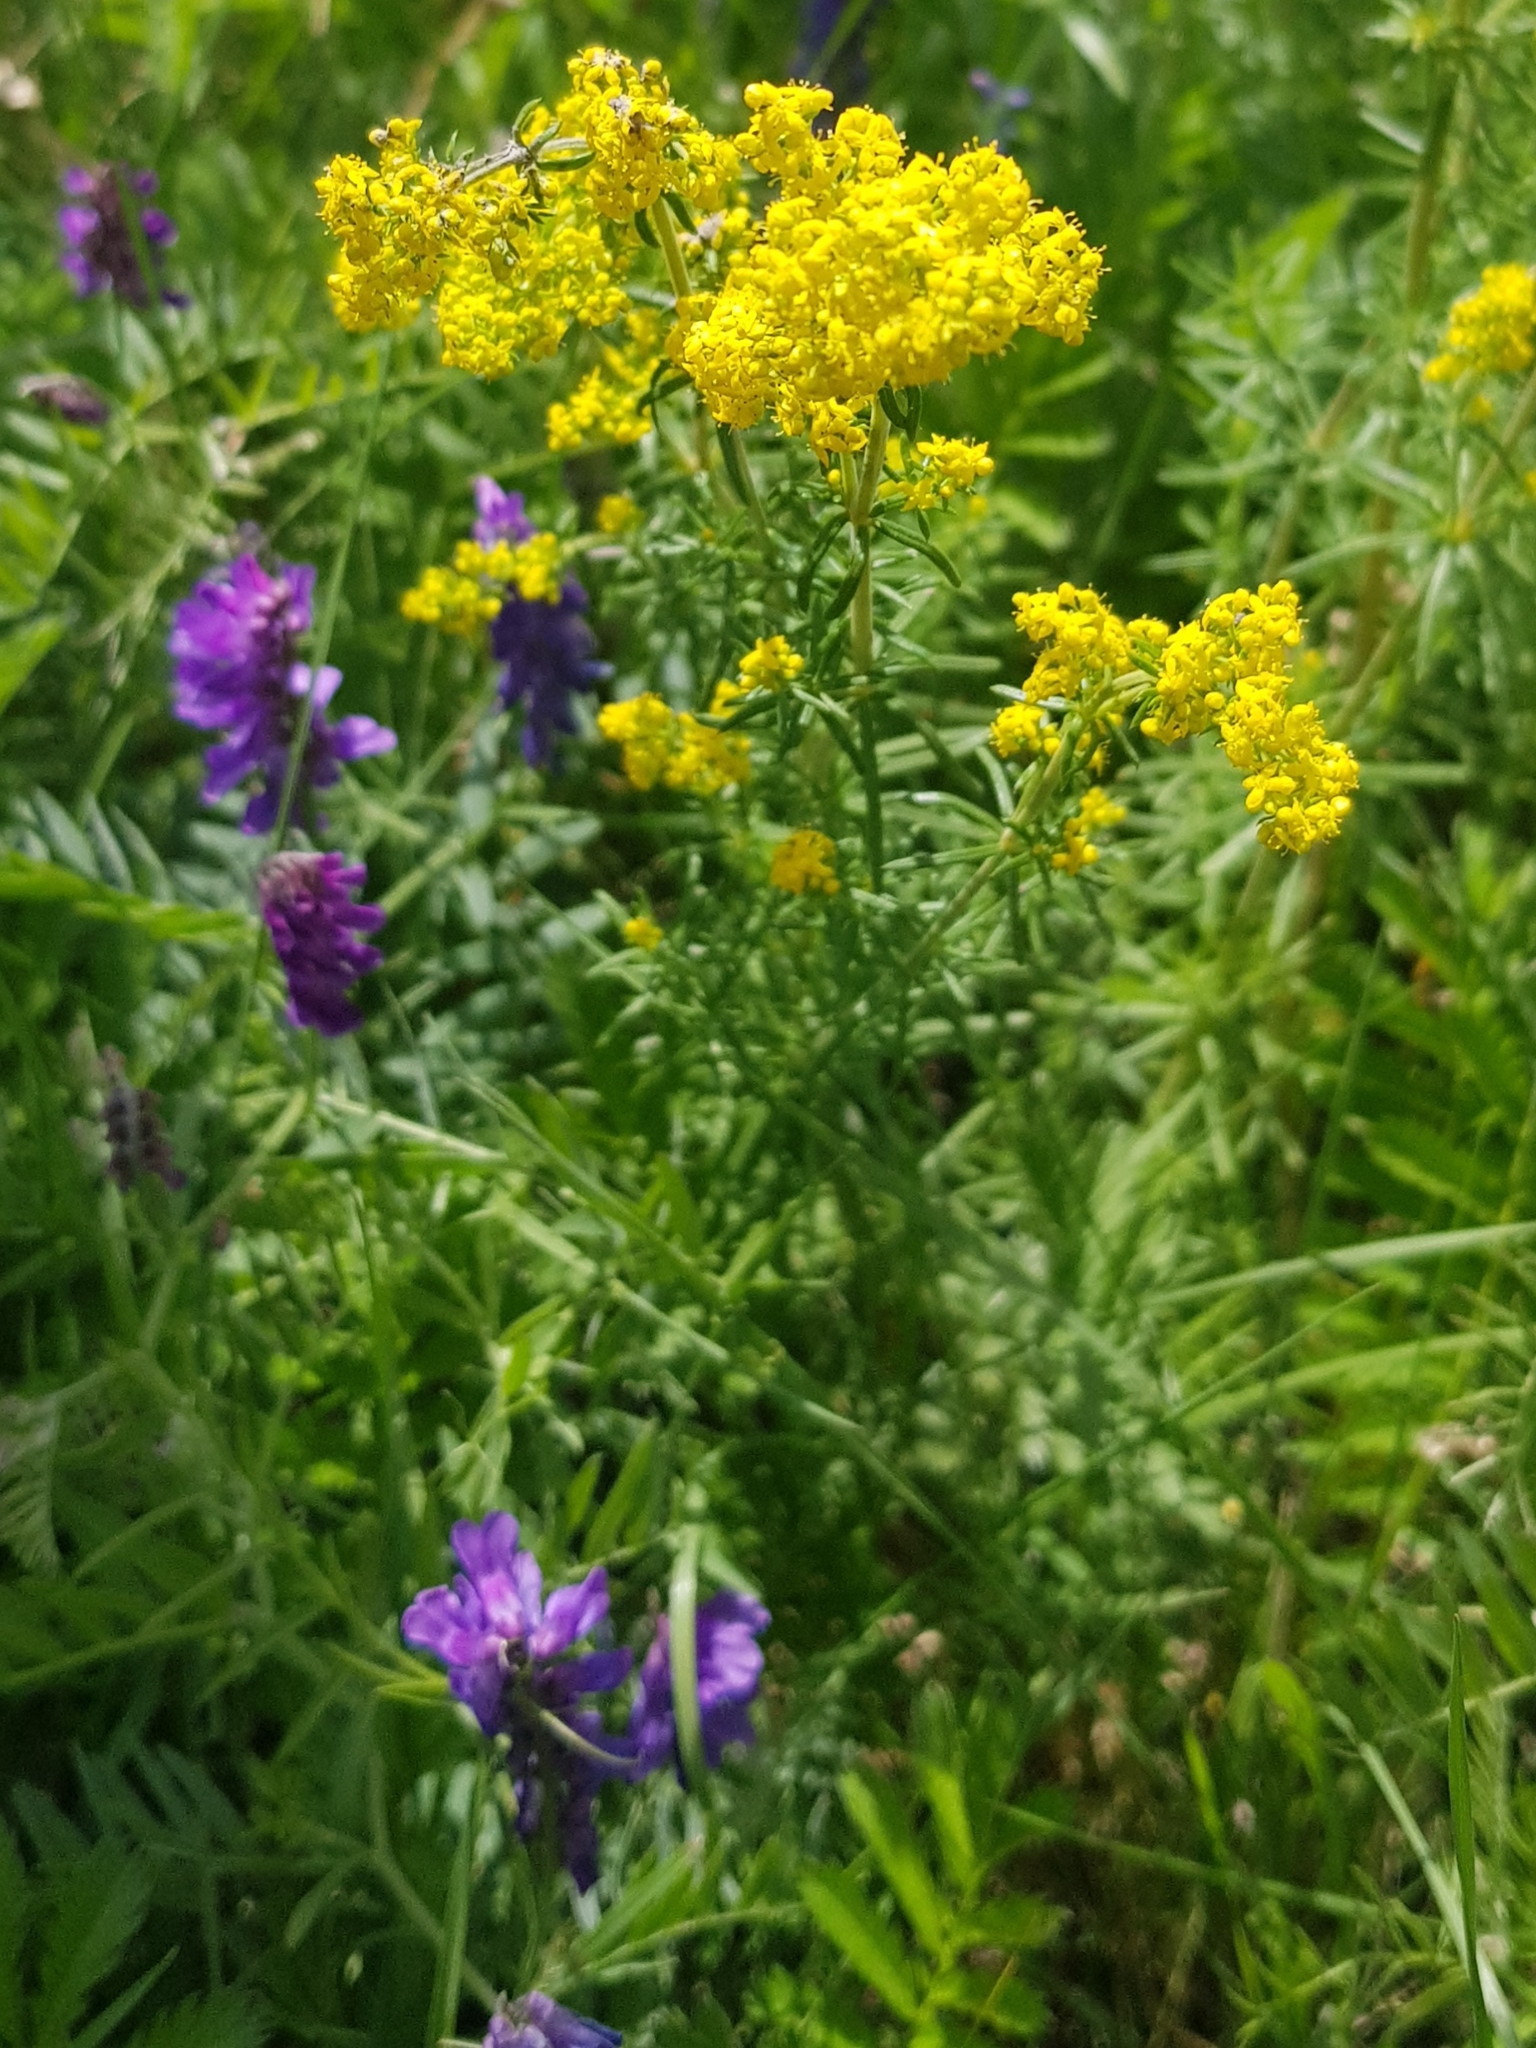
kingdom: Plantae
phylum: Tracheophyta
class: Magnoliopsida
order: Gentianales
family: Rubiaceae
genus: Galium
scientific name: Galium verum
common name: Lady's bedstraw
